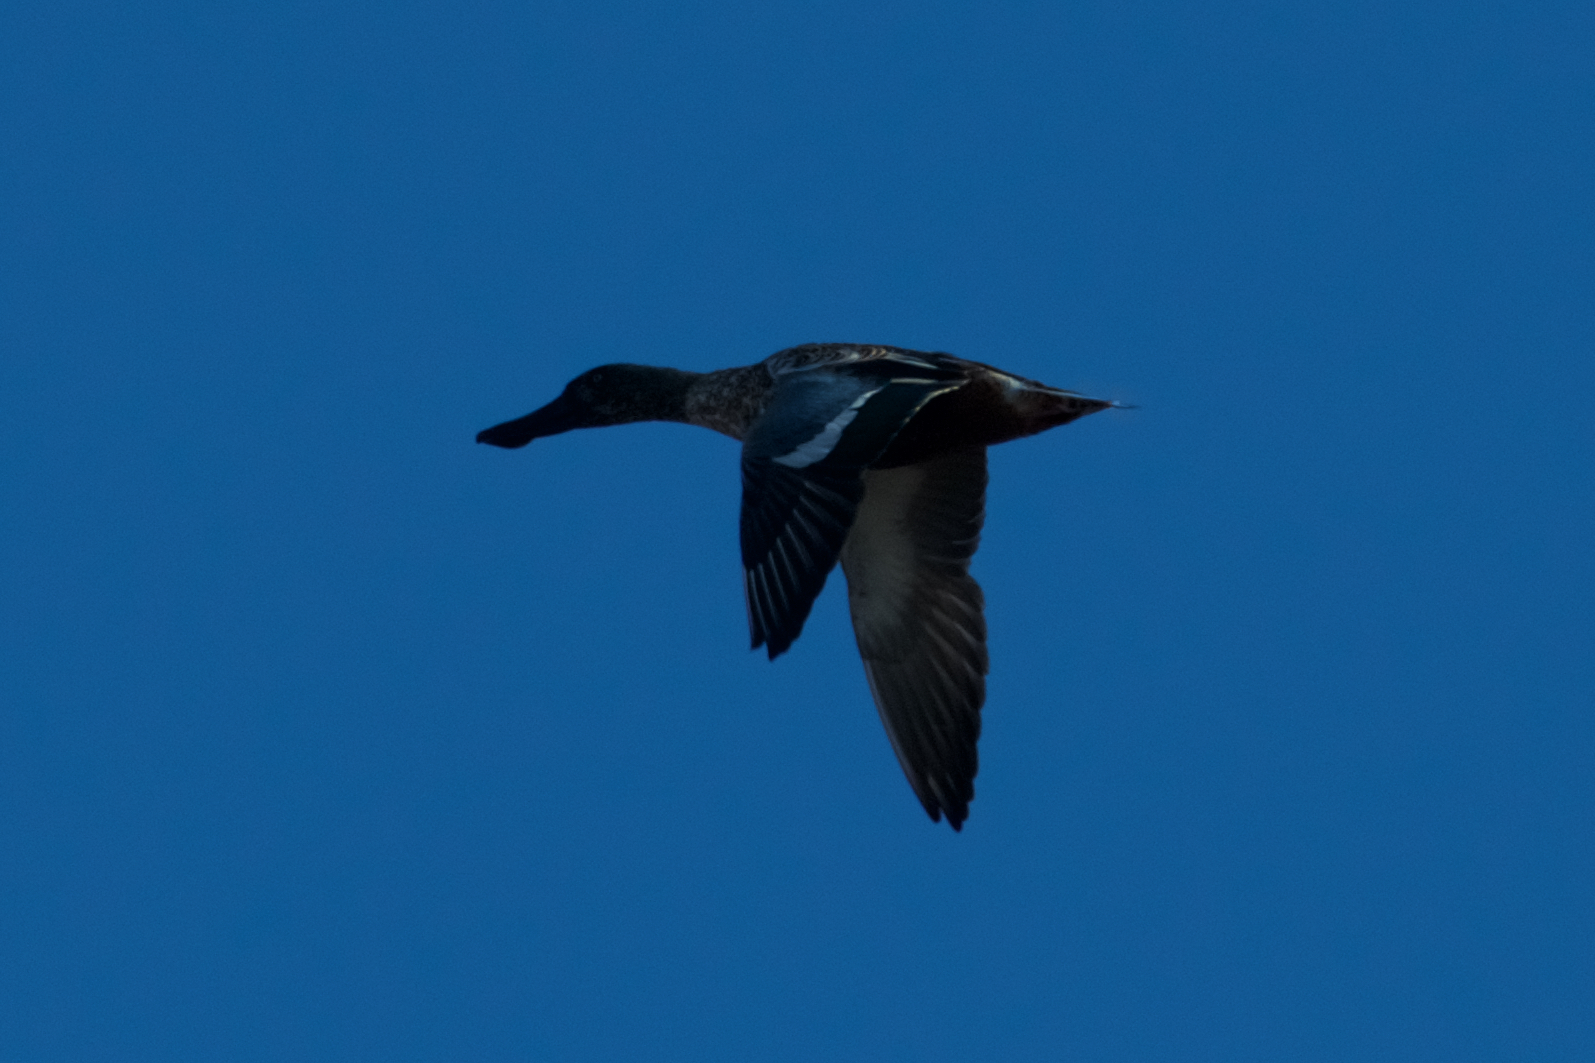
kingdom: Animalia
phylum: Chordata
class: Aves
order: Anseriformes
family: Anatidae
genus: Spatula
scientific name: Spatula clypeata
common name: Northern shoveler
